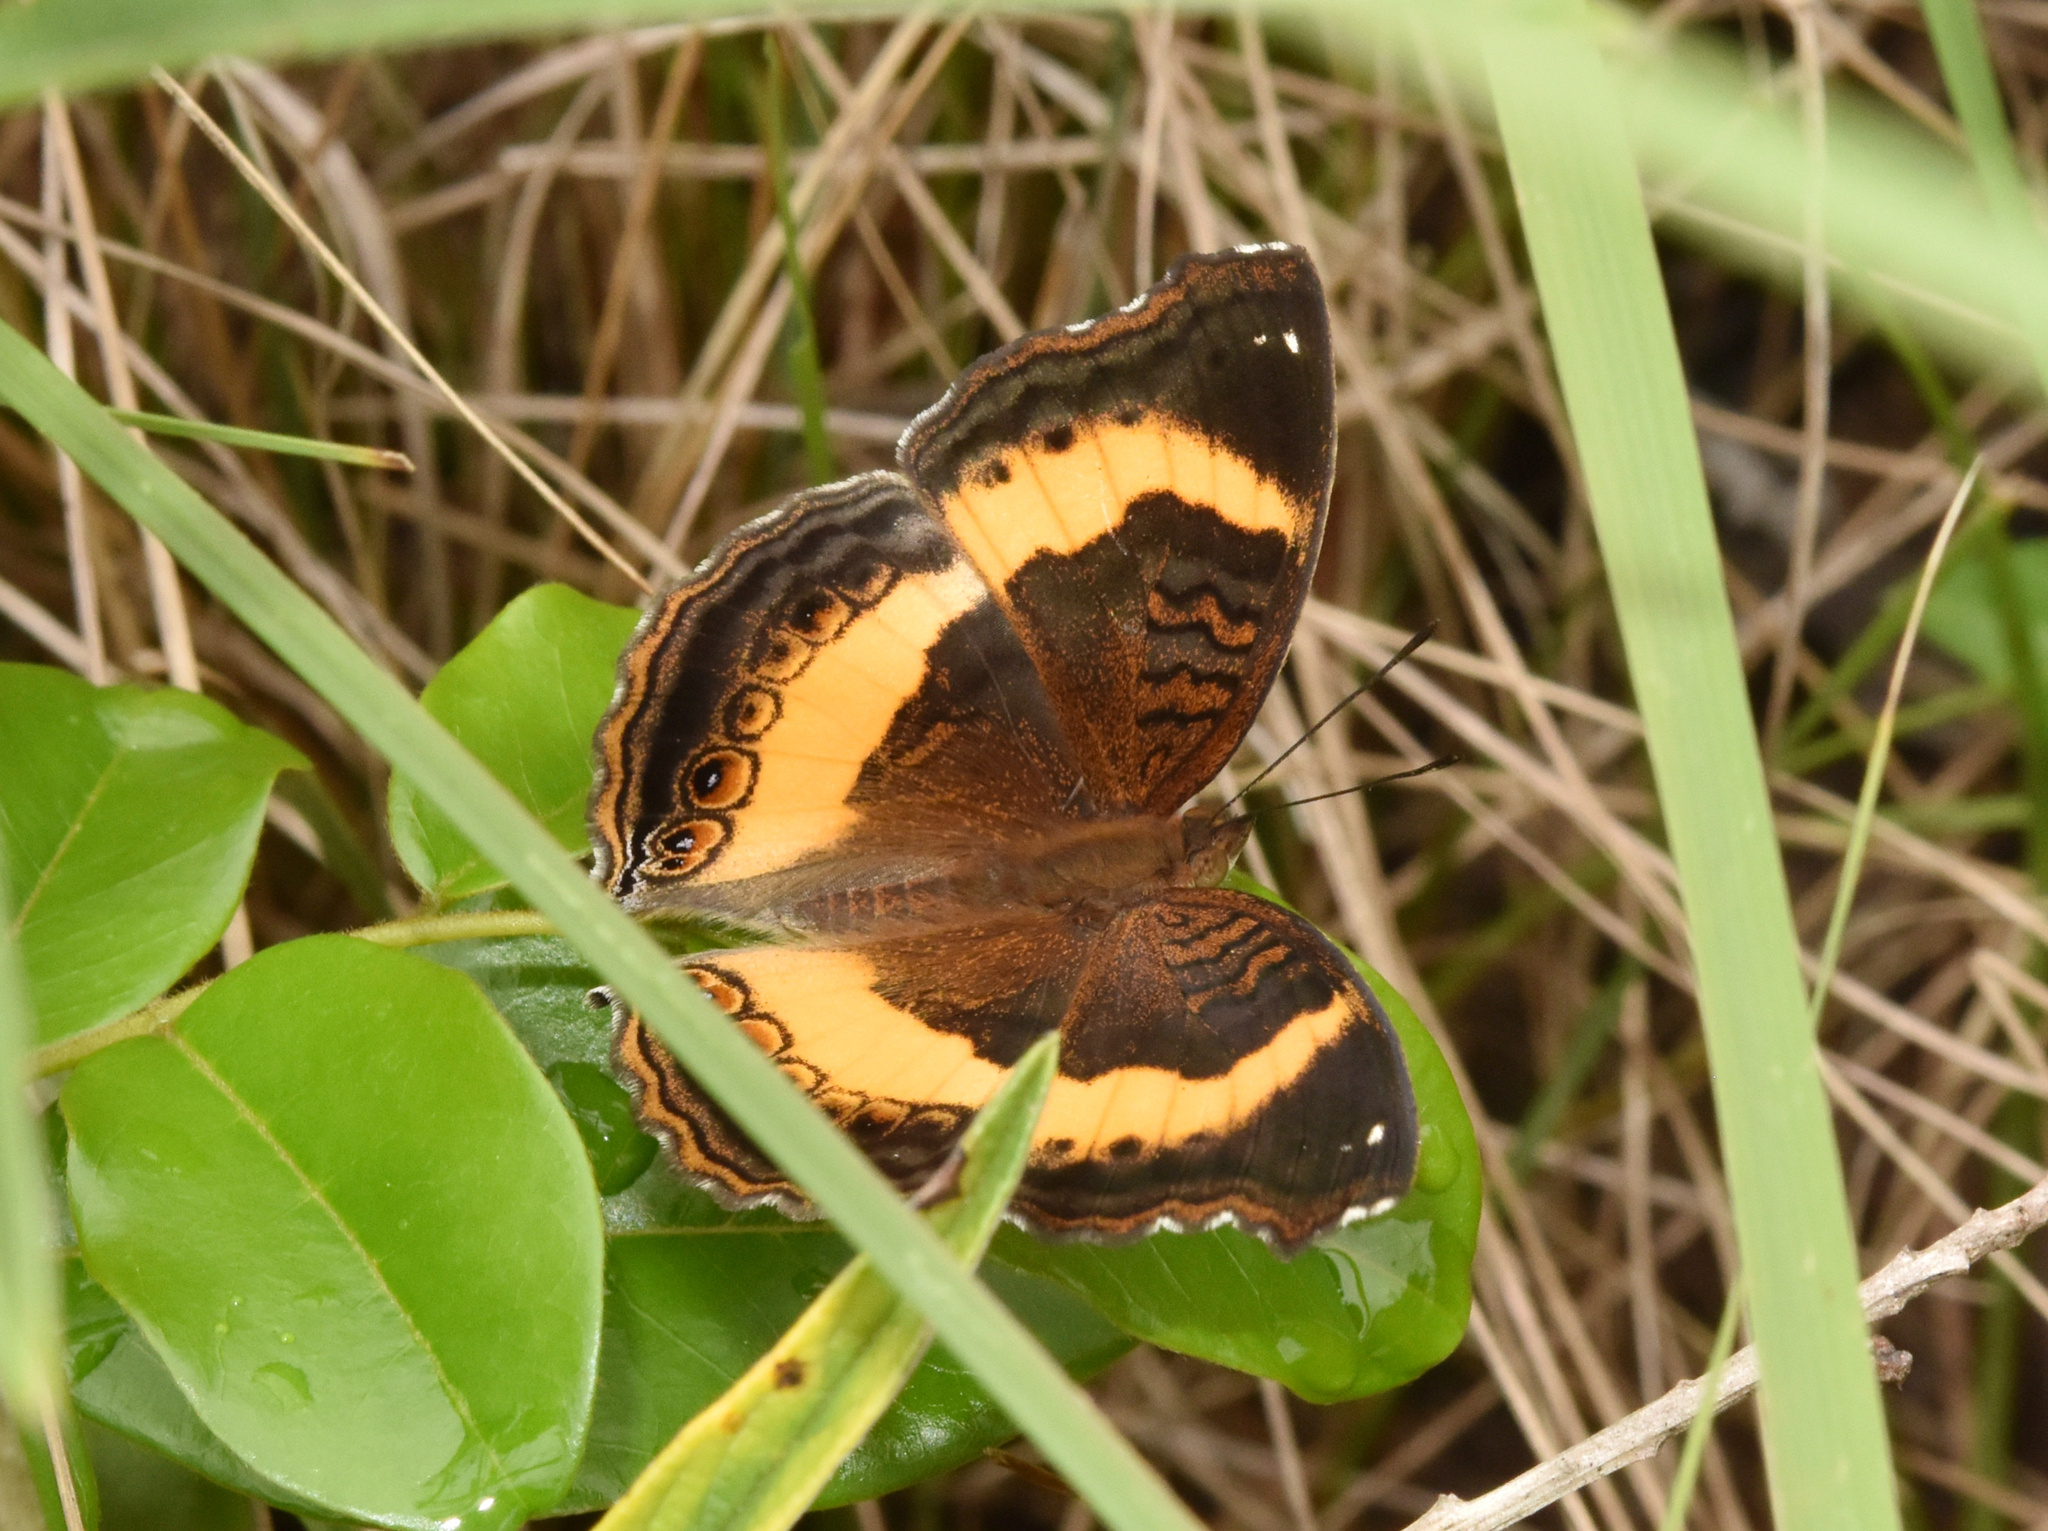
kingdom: Animalia
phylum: Arthropoda
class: Insecta
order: Lepidoptera
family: Nymphalidae
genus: Junonia
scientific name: Junonia terea
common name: Soldier pansy
